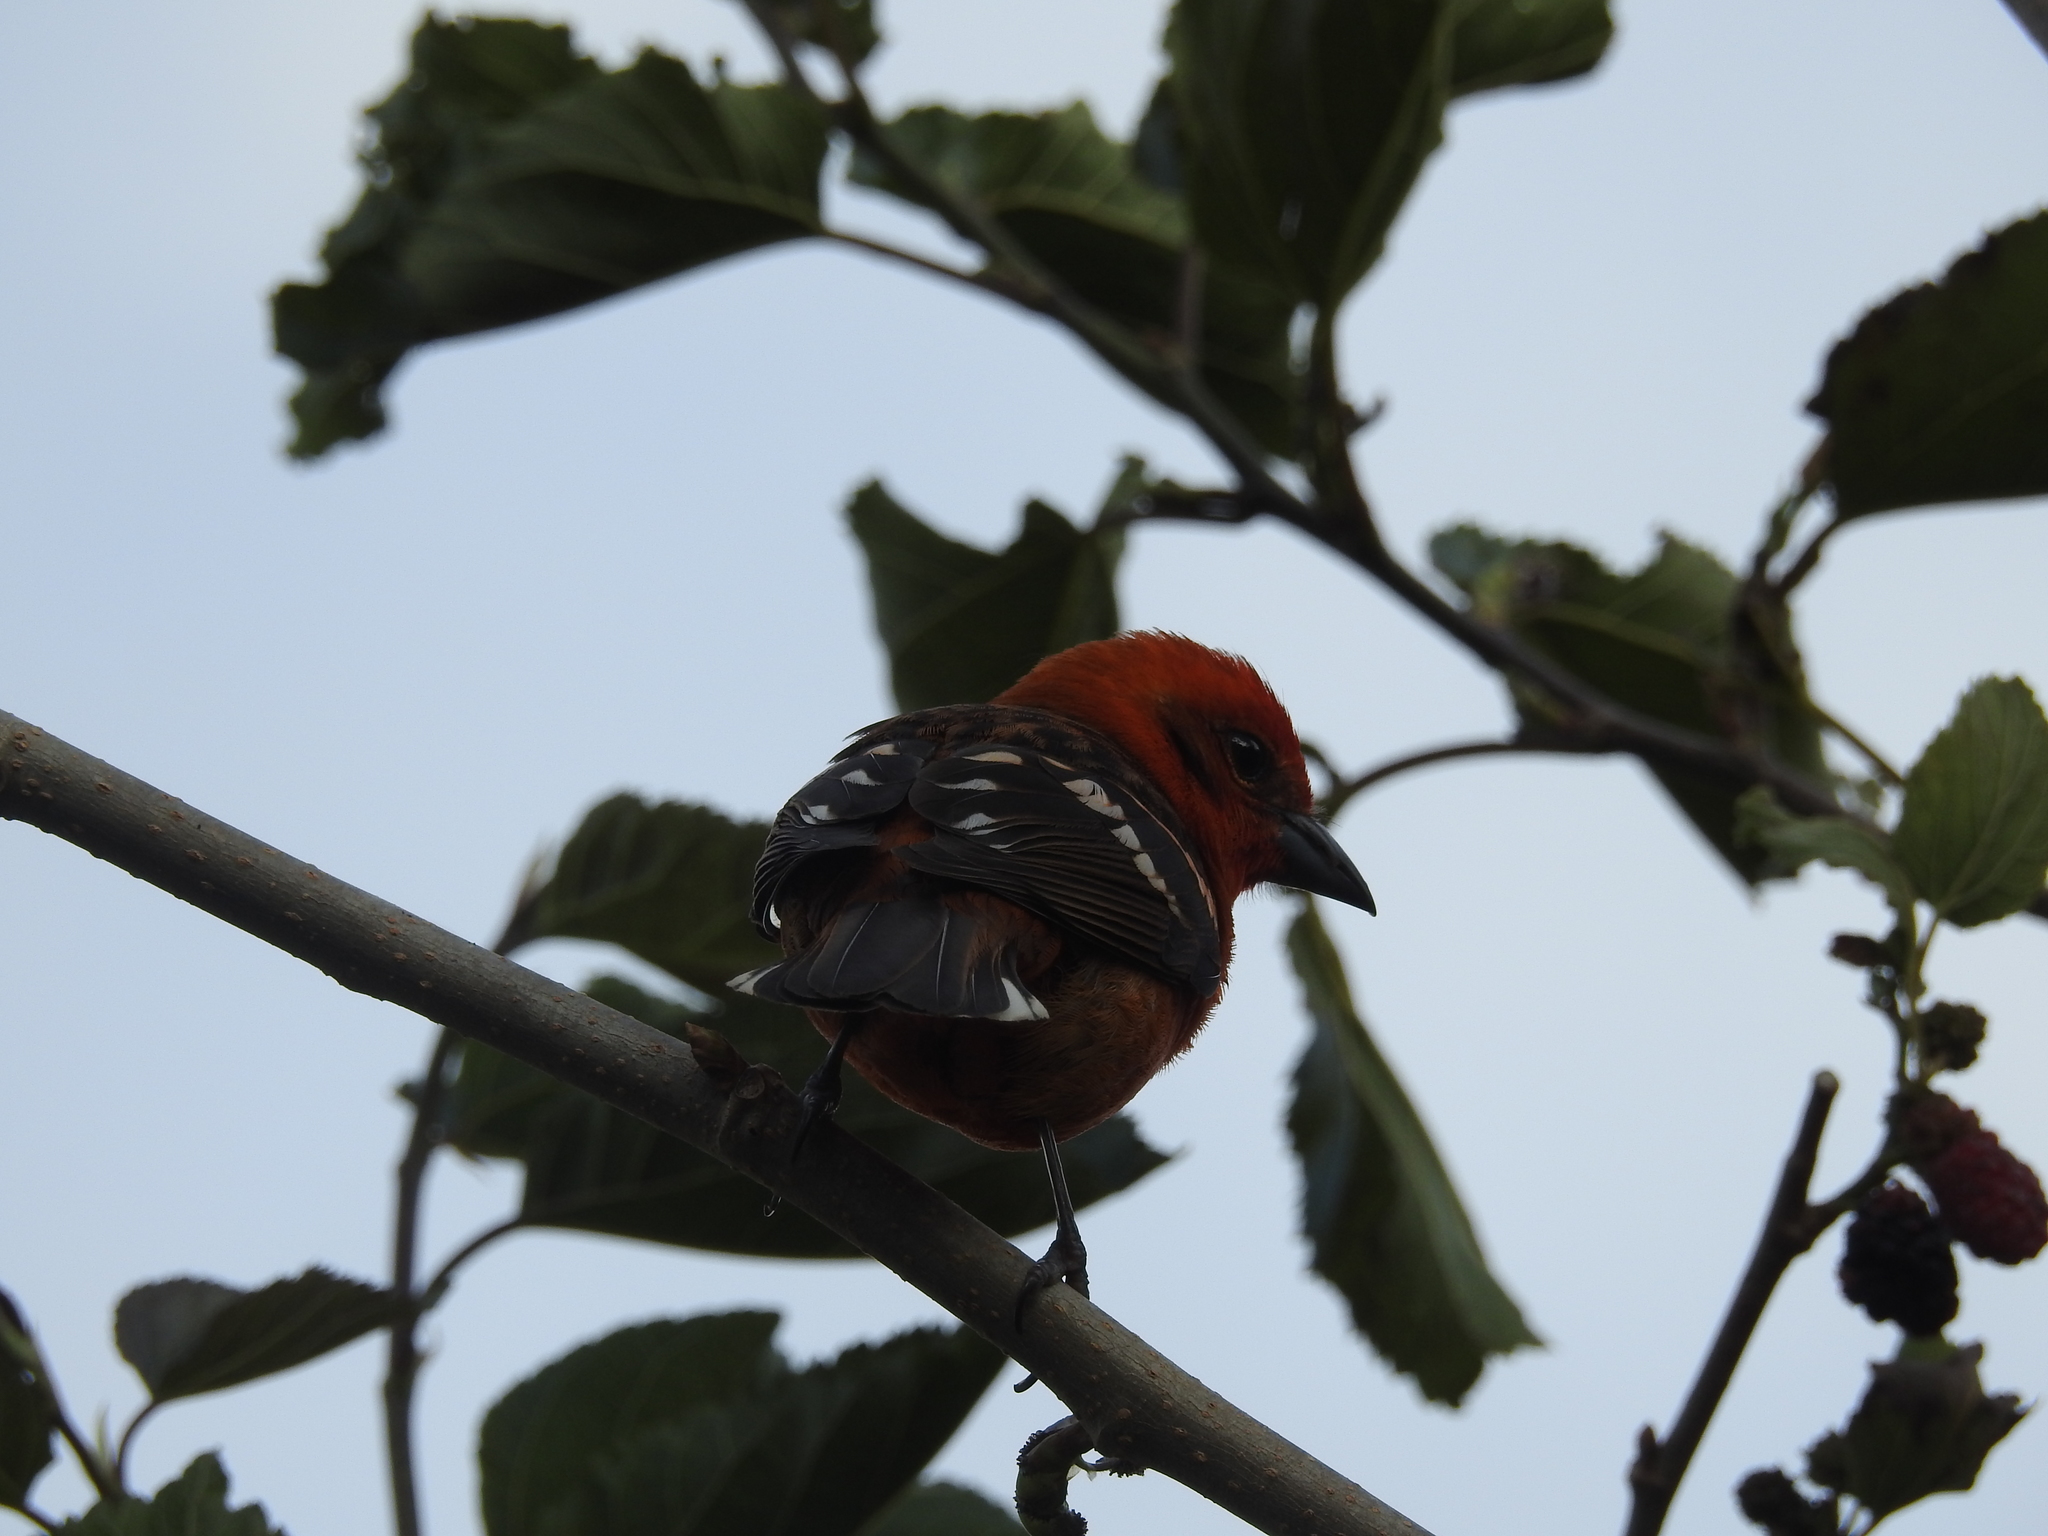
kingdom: Animalia
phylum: Chordata
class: Aves
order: Passeriformes
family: Cardinalidae
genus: Piranga
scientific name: Piranga bidentata
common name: Flame-colored tanager
